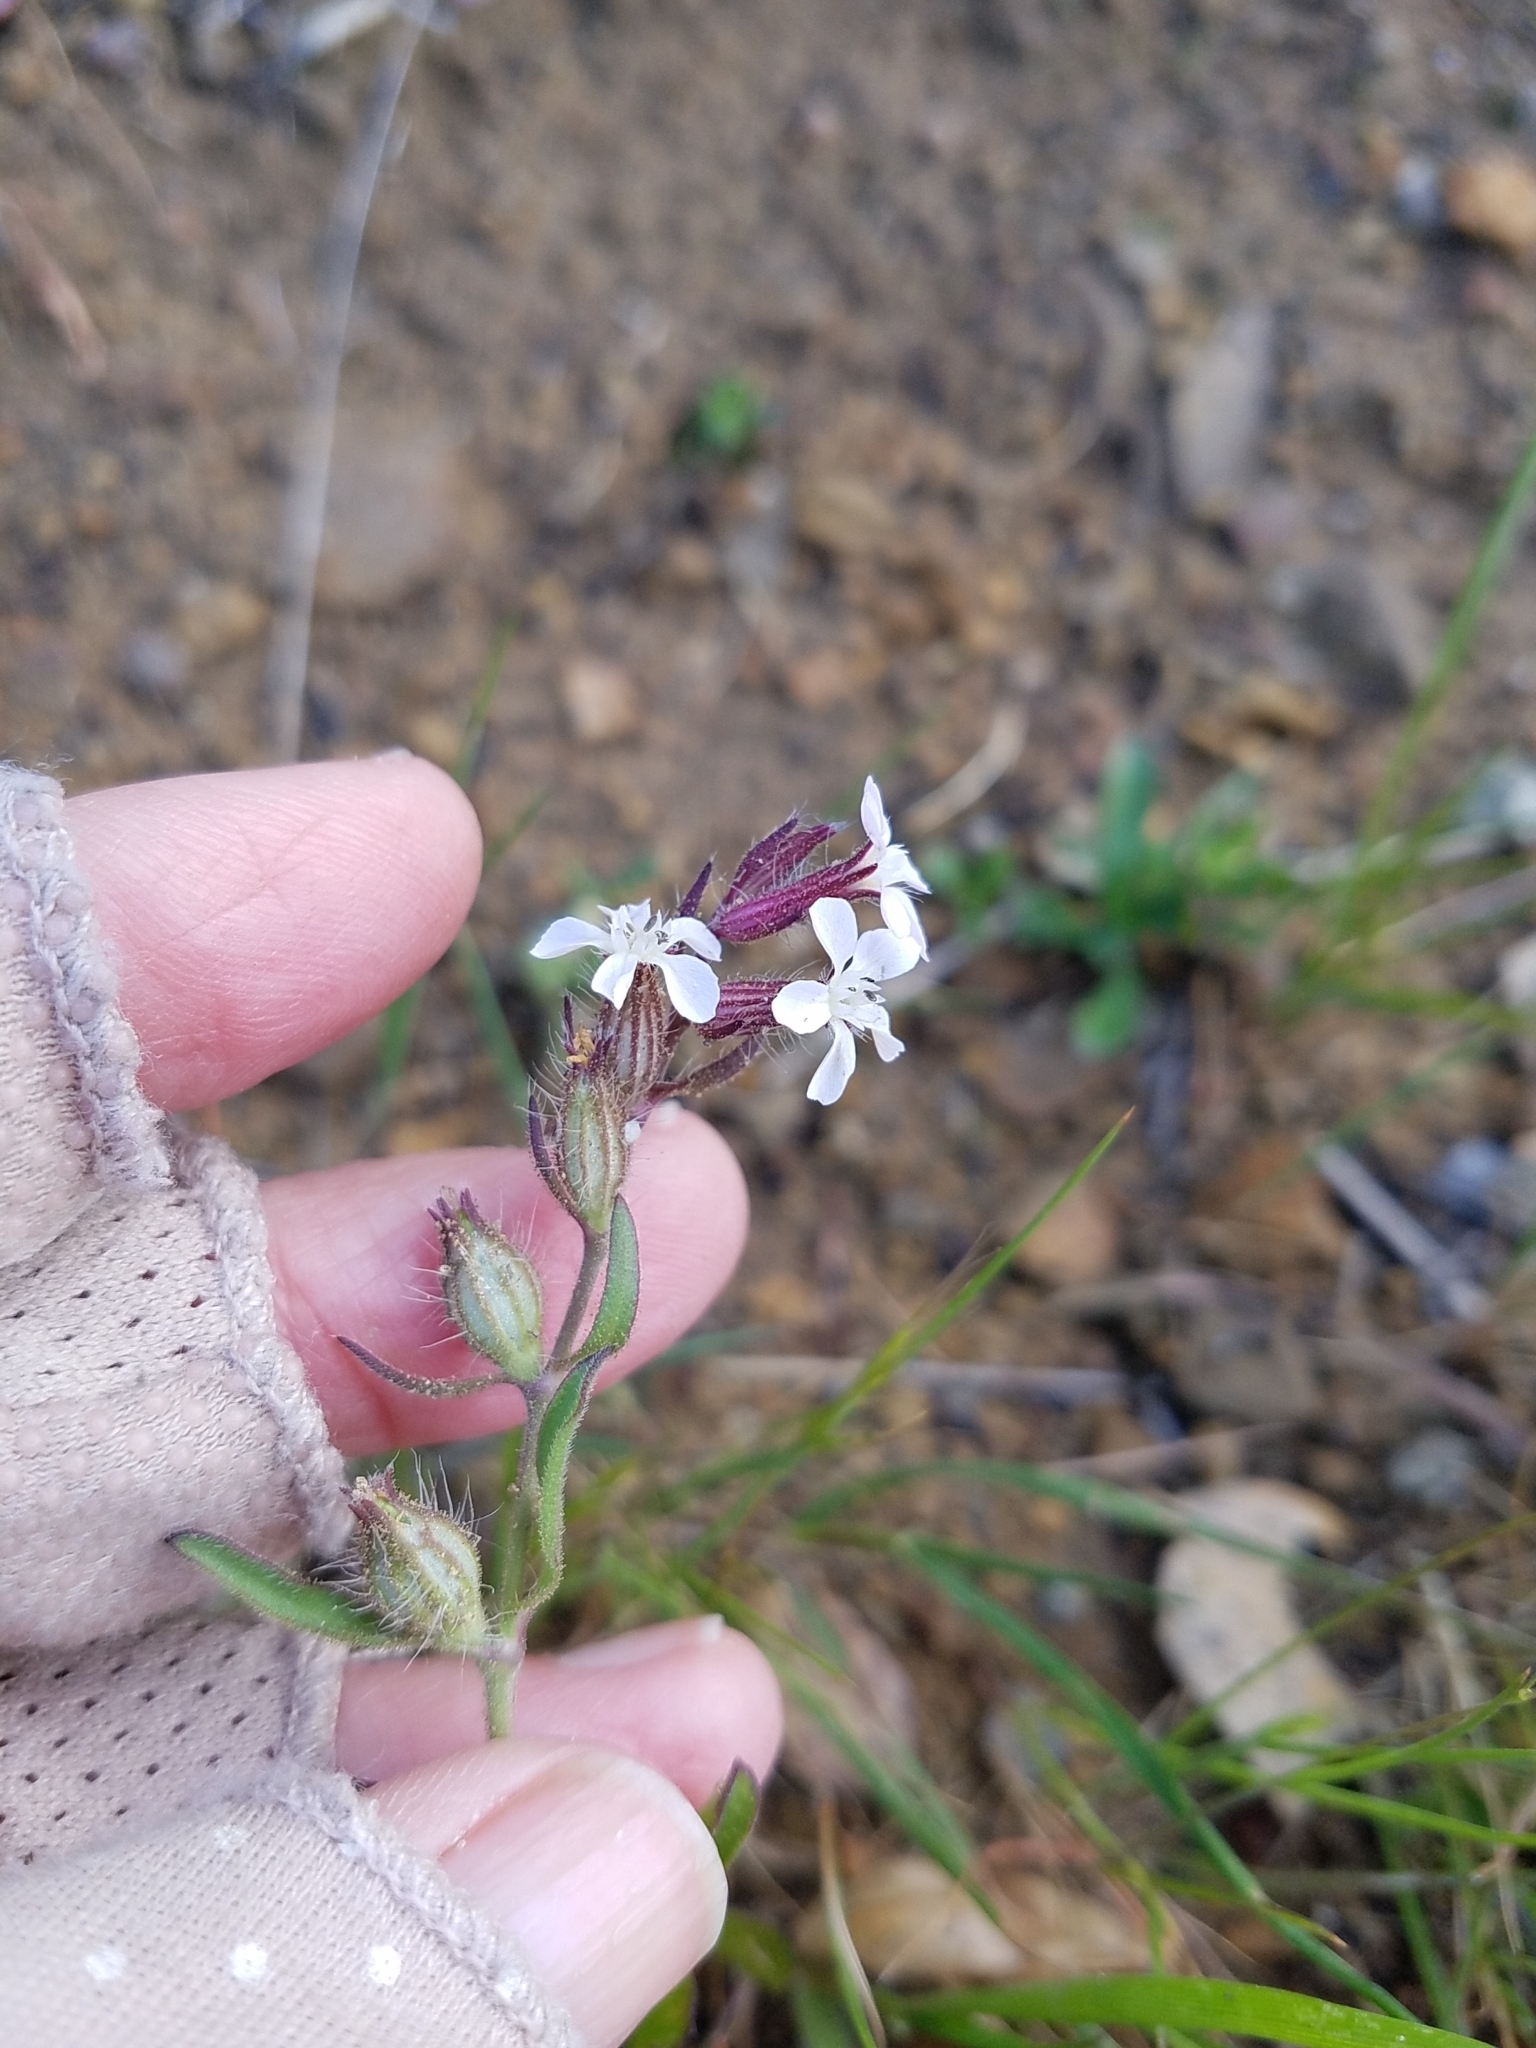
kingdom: Plantae
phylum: Tracheophyta
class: Magnoliopsida
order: Caryophyllales
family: Caryophyllaceae
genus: Silene
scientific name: Silene gallica
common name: Small-flowered catchfly
